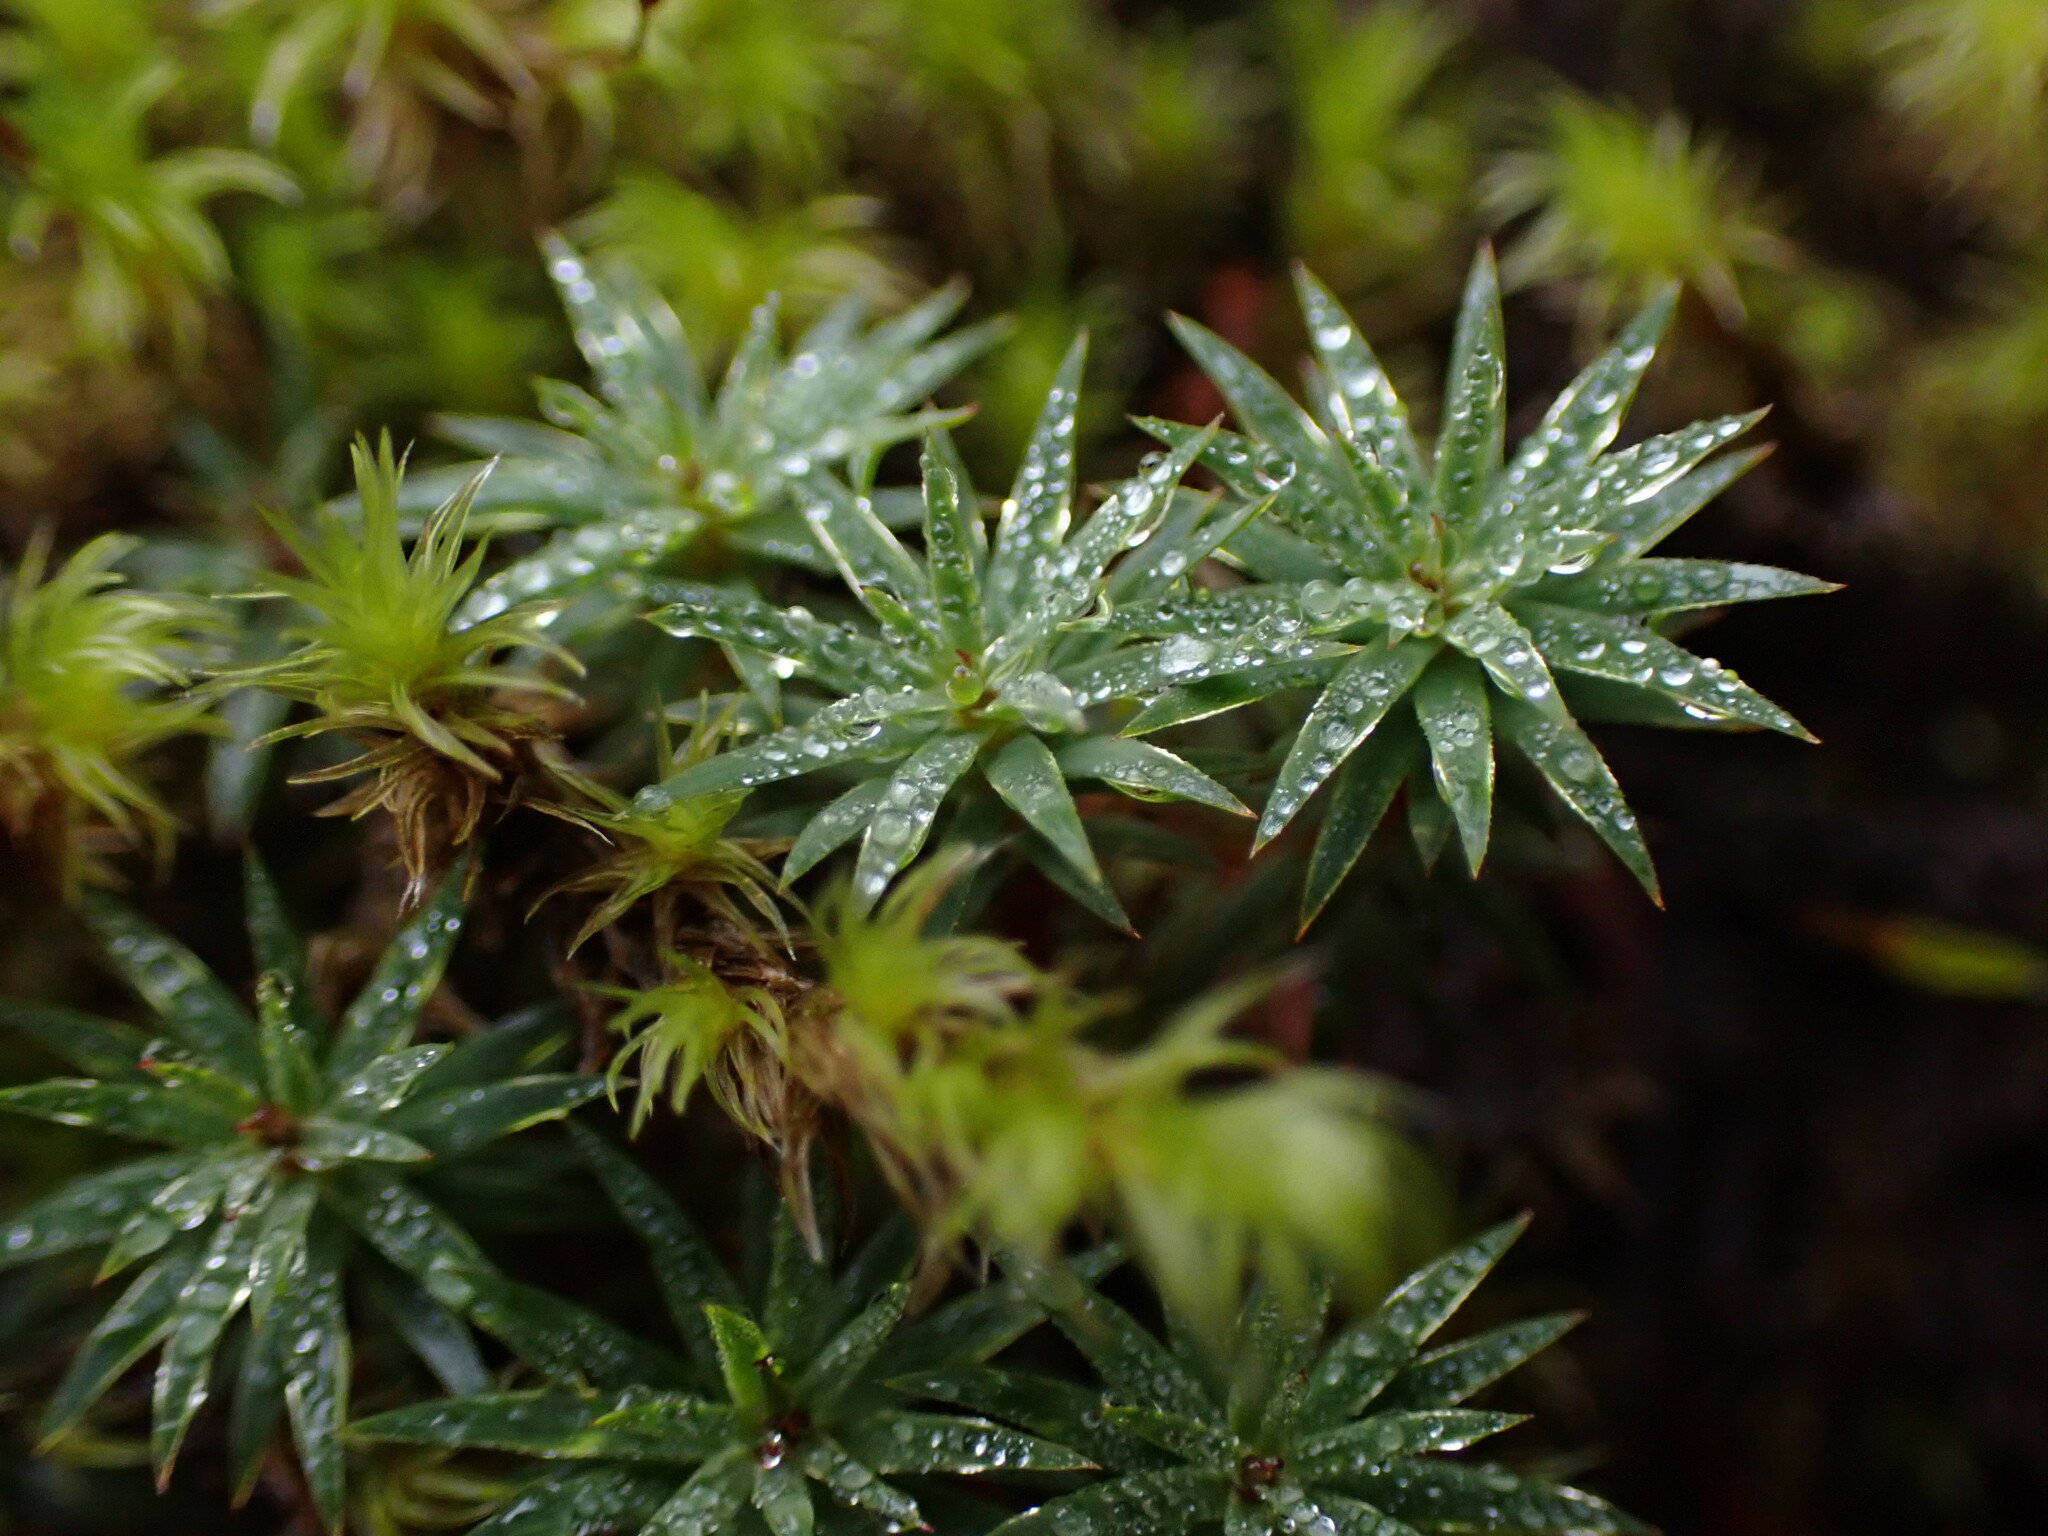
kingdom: Plantae
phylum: Bryophyta
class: Polytrichopsida
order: Polytrichales
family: Polytrichaceae
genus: Pogonatum
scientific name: Pogonatum urnigerum
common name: Urn hair moss
